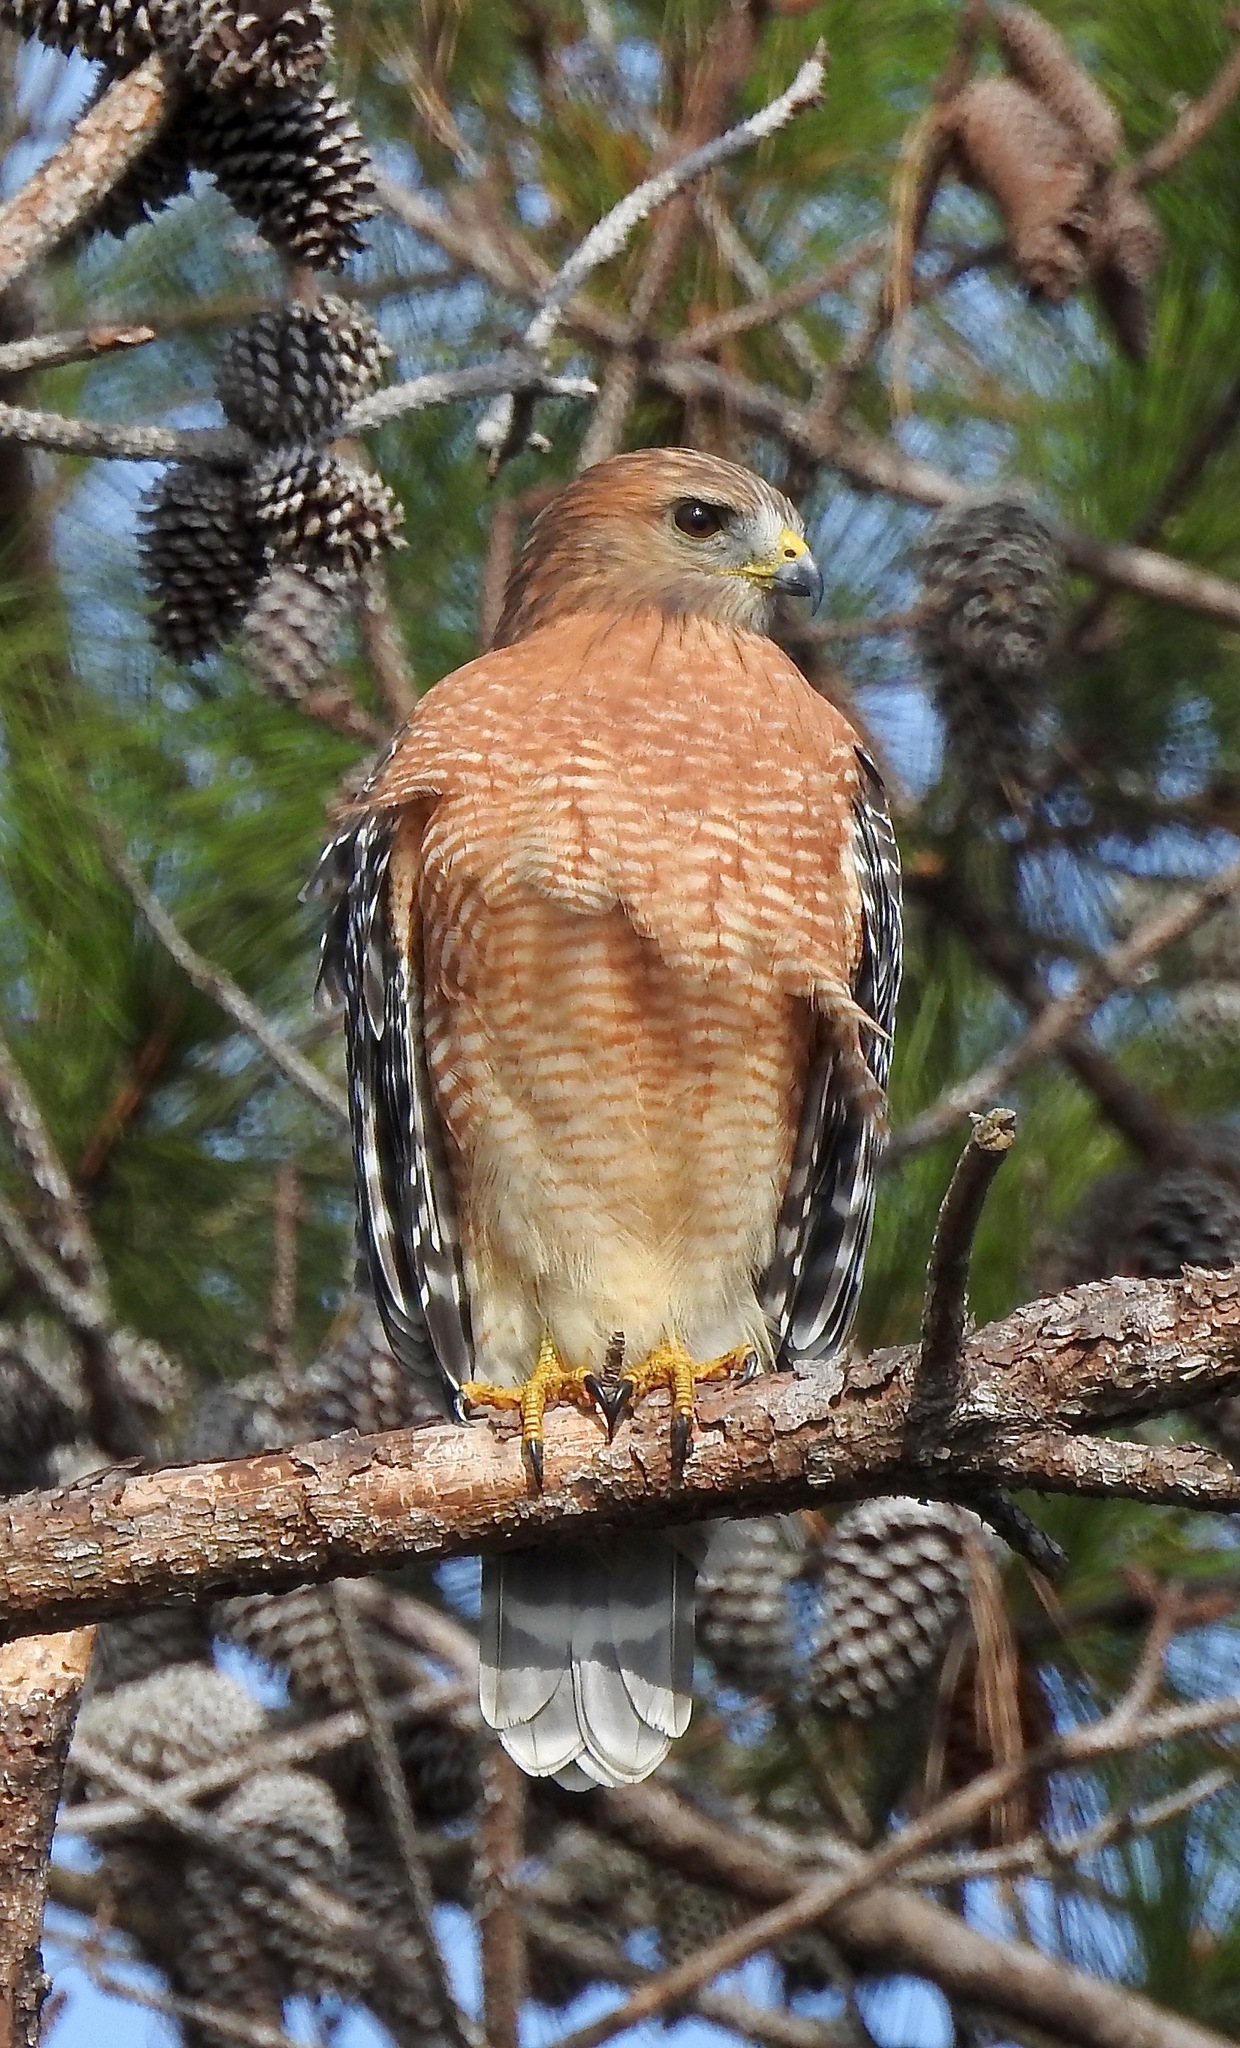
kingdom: Animalia
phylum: Chordata
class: Aves
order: Accipitriformes
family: Accipitridae
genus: Buteo
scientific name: Buteo lineatus
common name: Red-shouldered hawk
